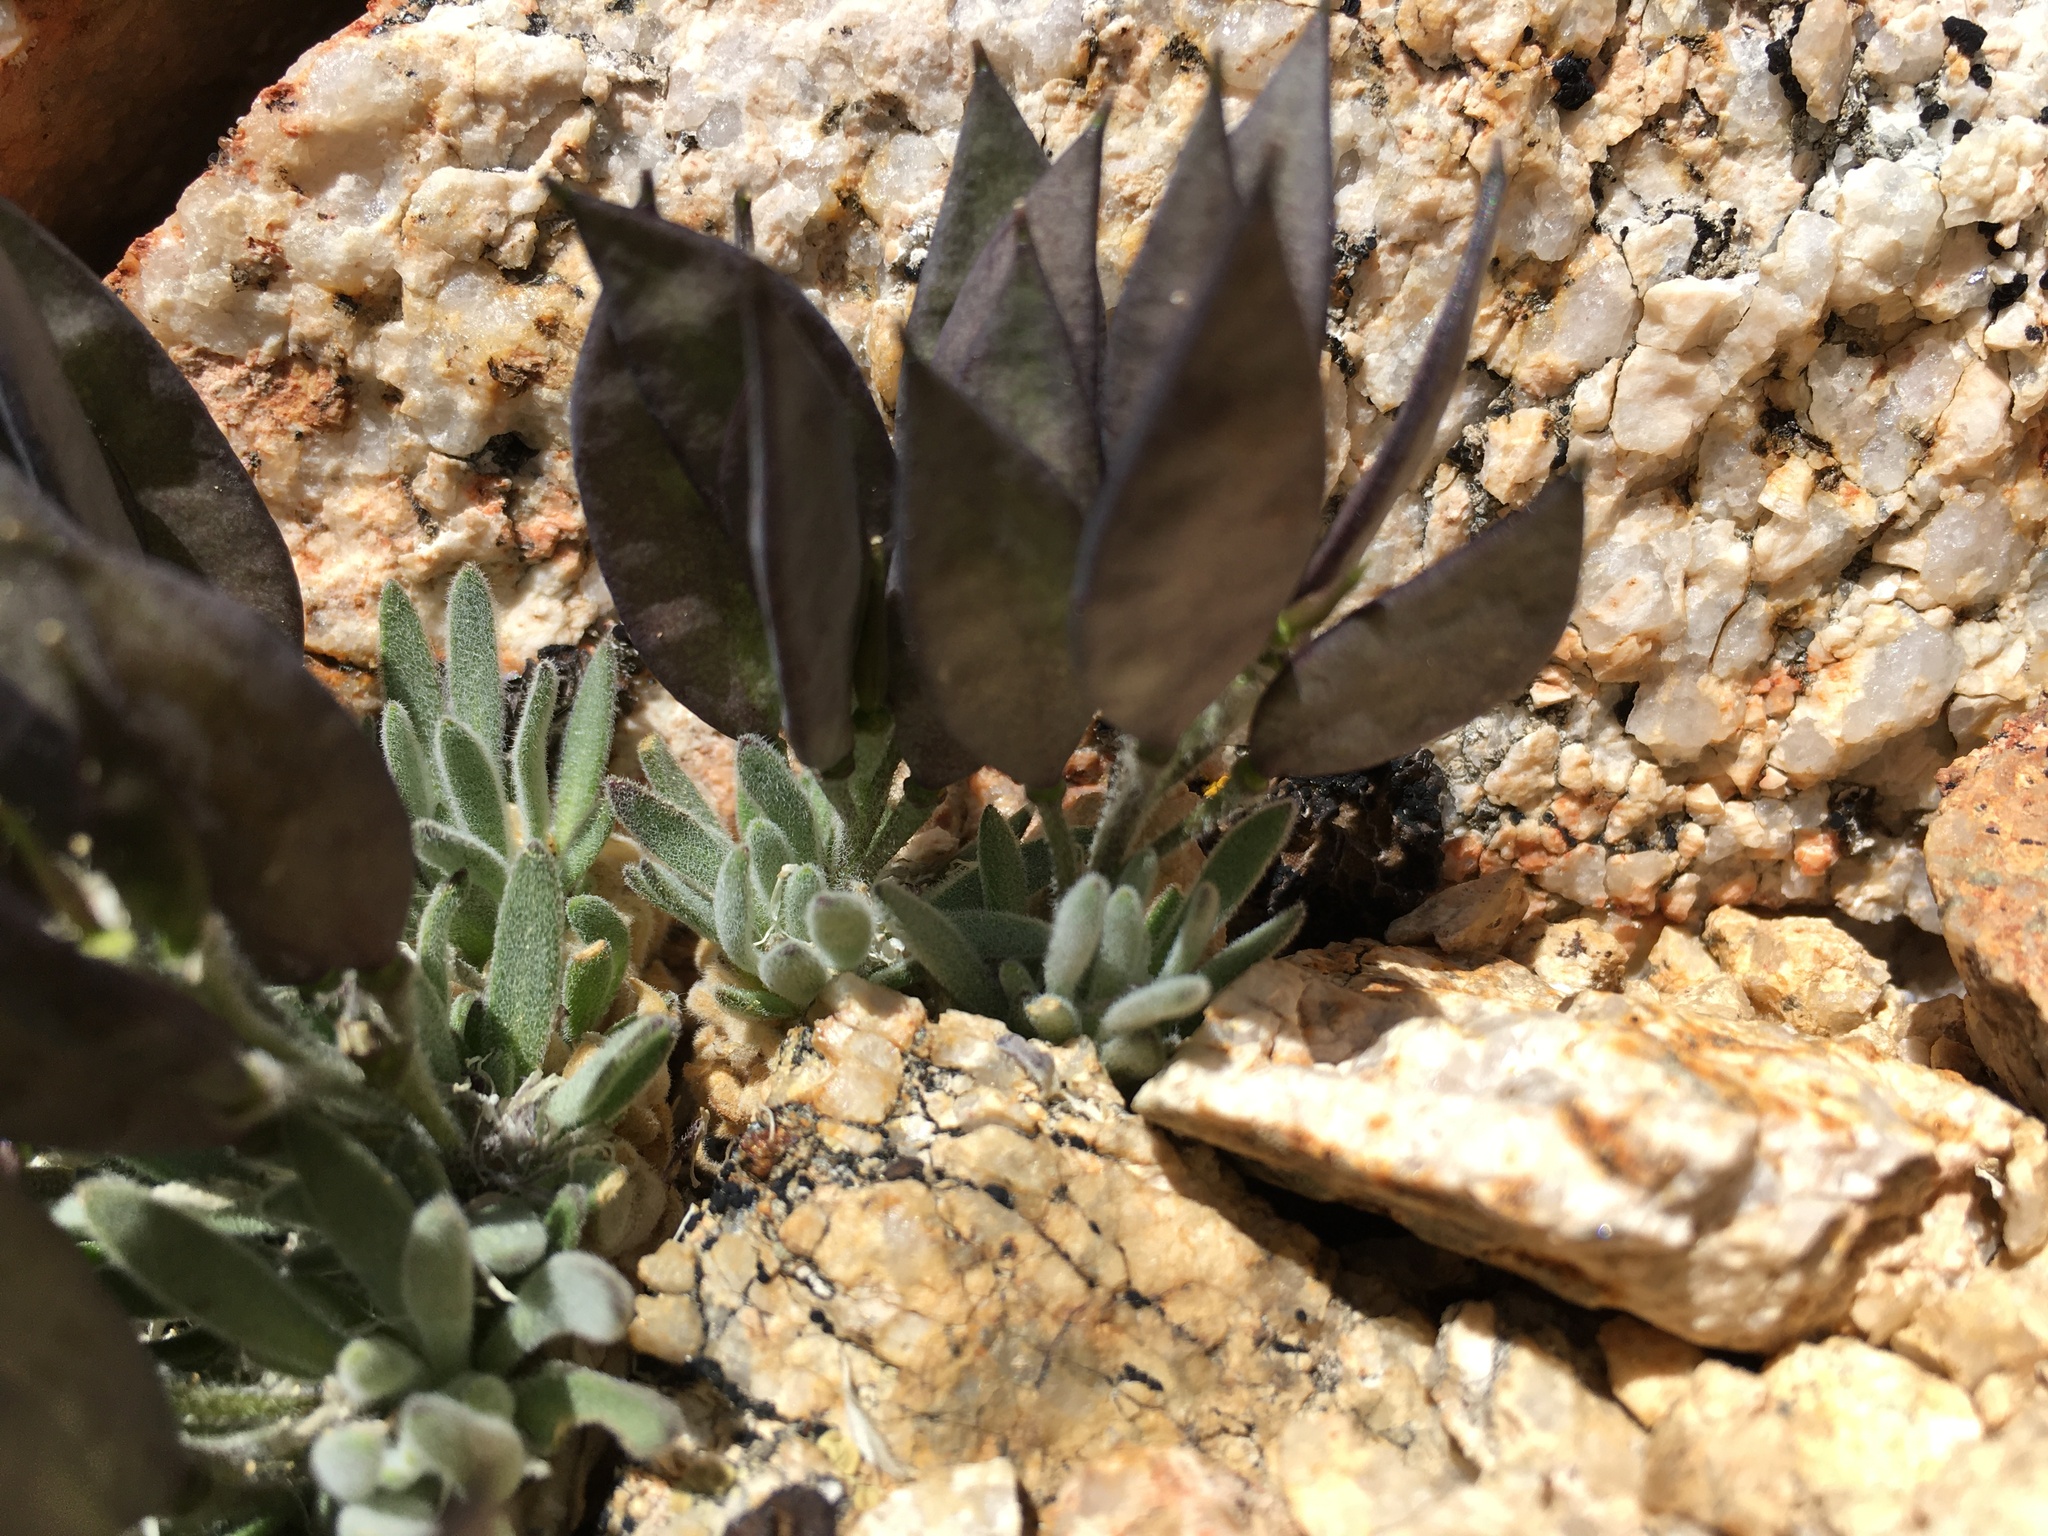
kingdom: Plantae
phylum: Tracheophyta
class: Magnoliopsida
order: Brassicales
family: Brassicaceae
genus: Anelsonia
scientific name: Anelsonia eurycarpa
